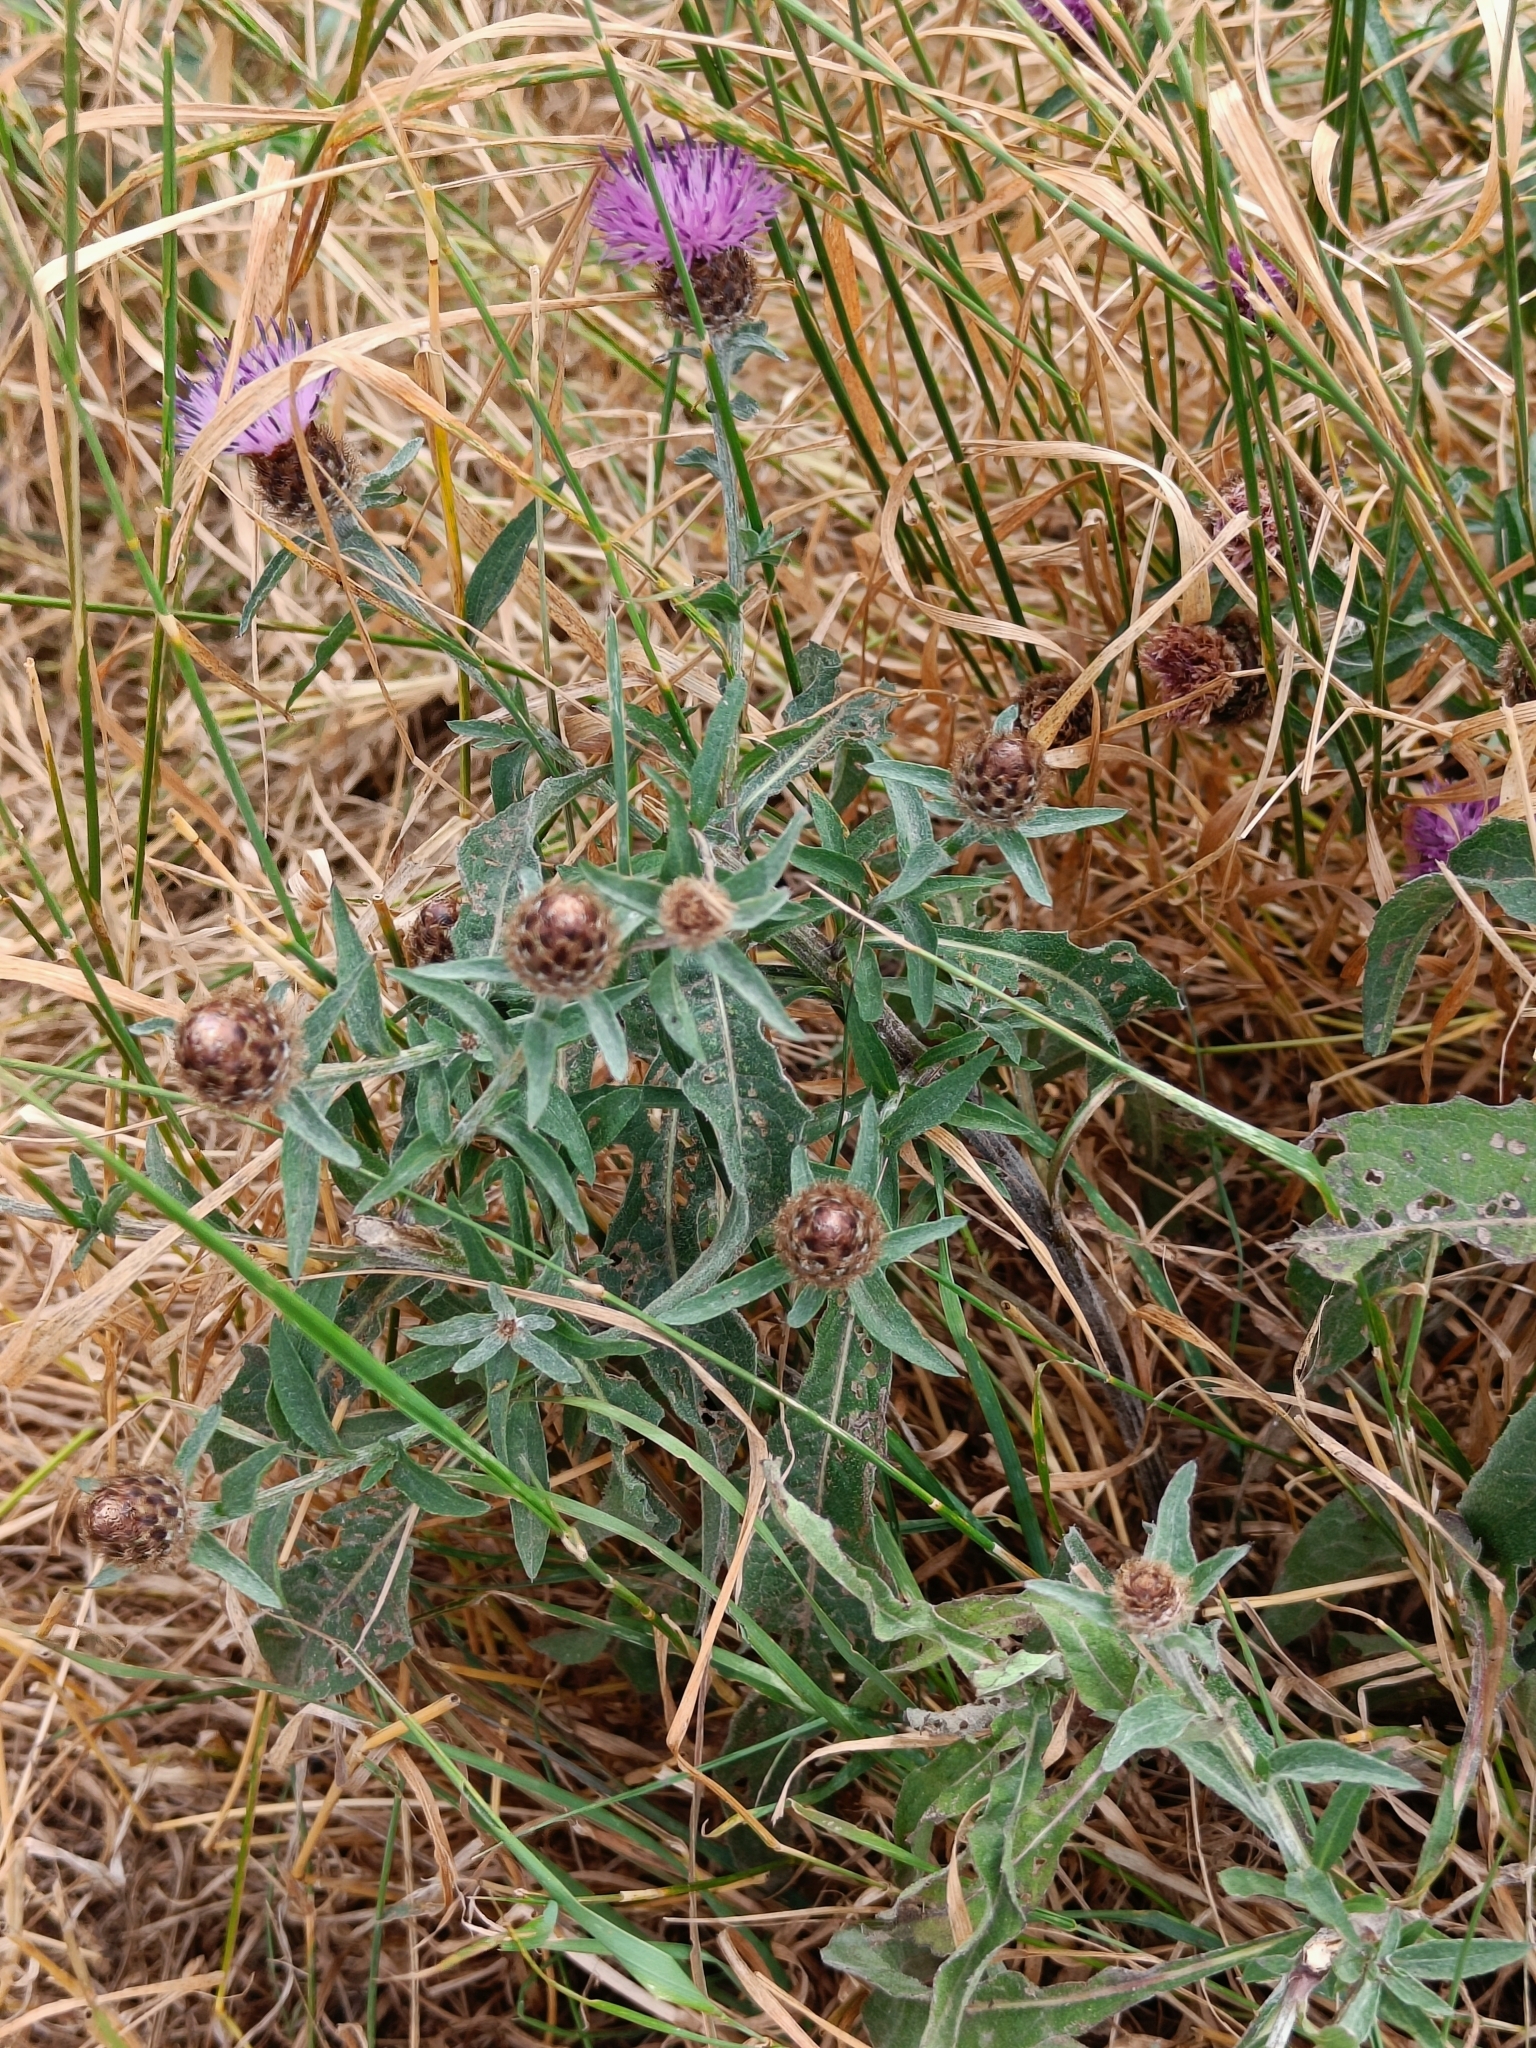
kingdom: Plantae
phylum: Tracheophyta
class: Magnoliopsida
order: Asterales
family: Asteraceae
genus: Centaurea
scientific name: Centaurea nigra
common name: Lesser knapweed
